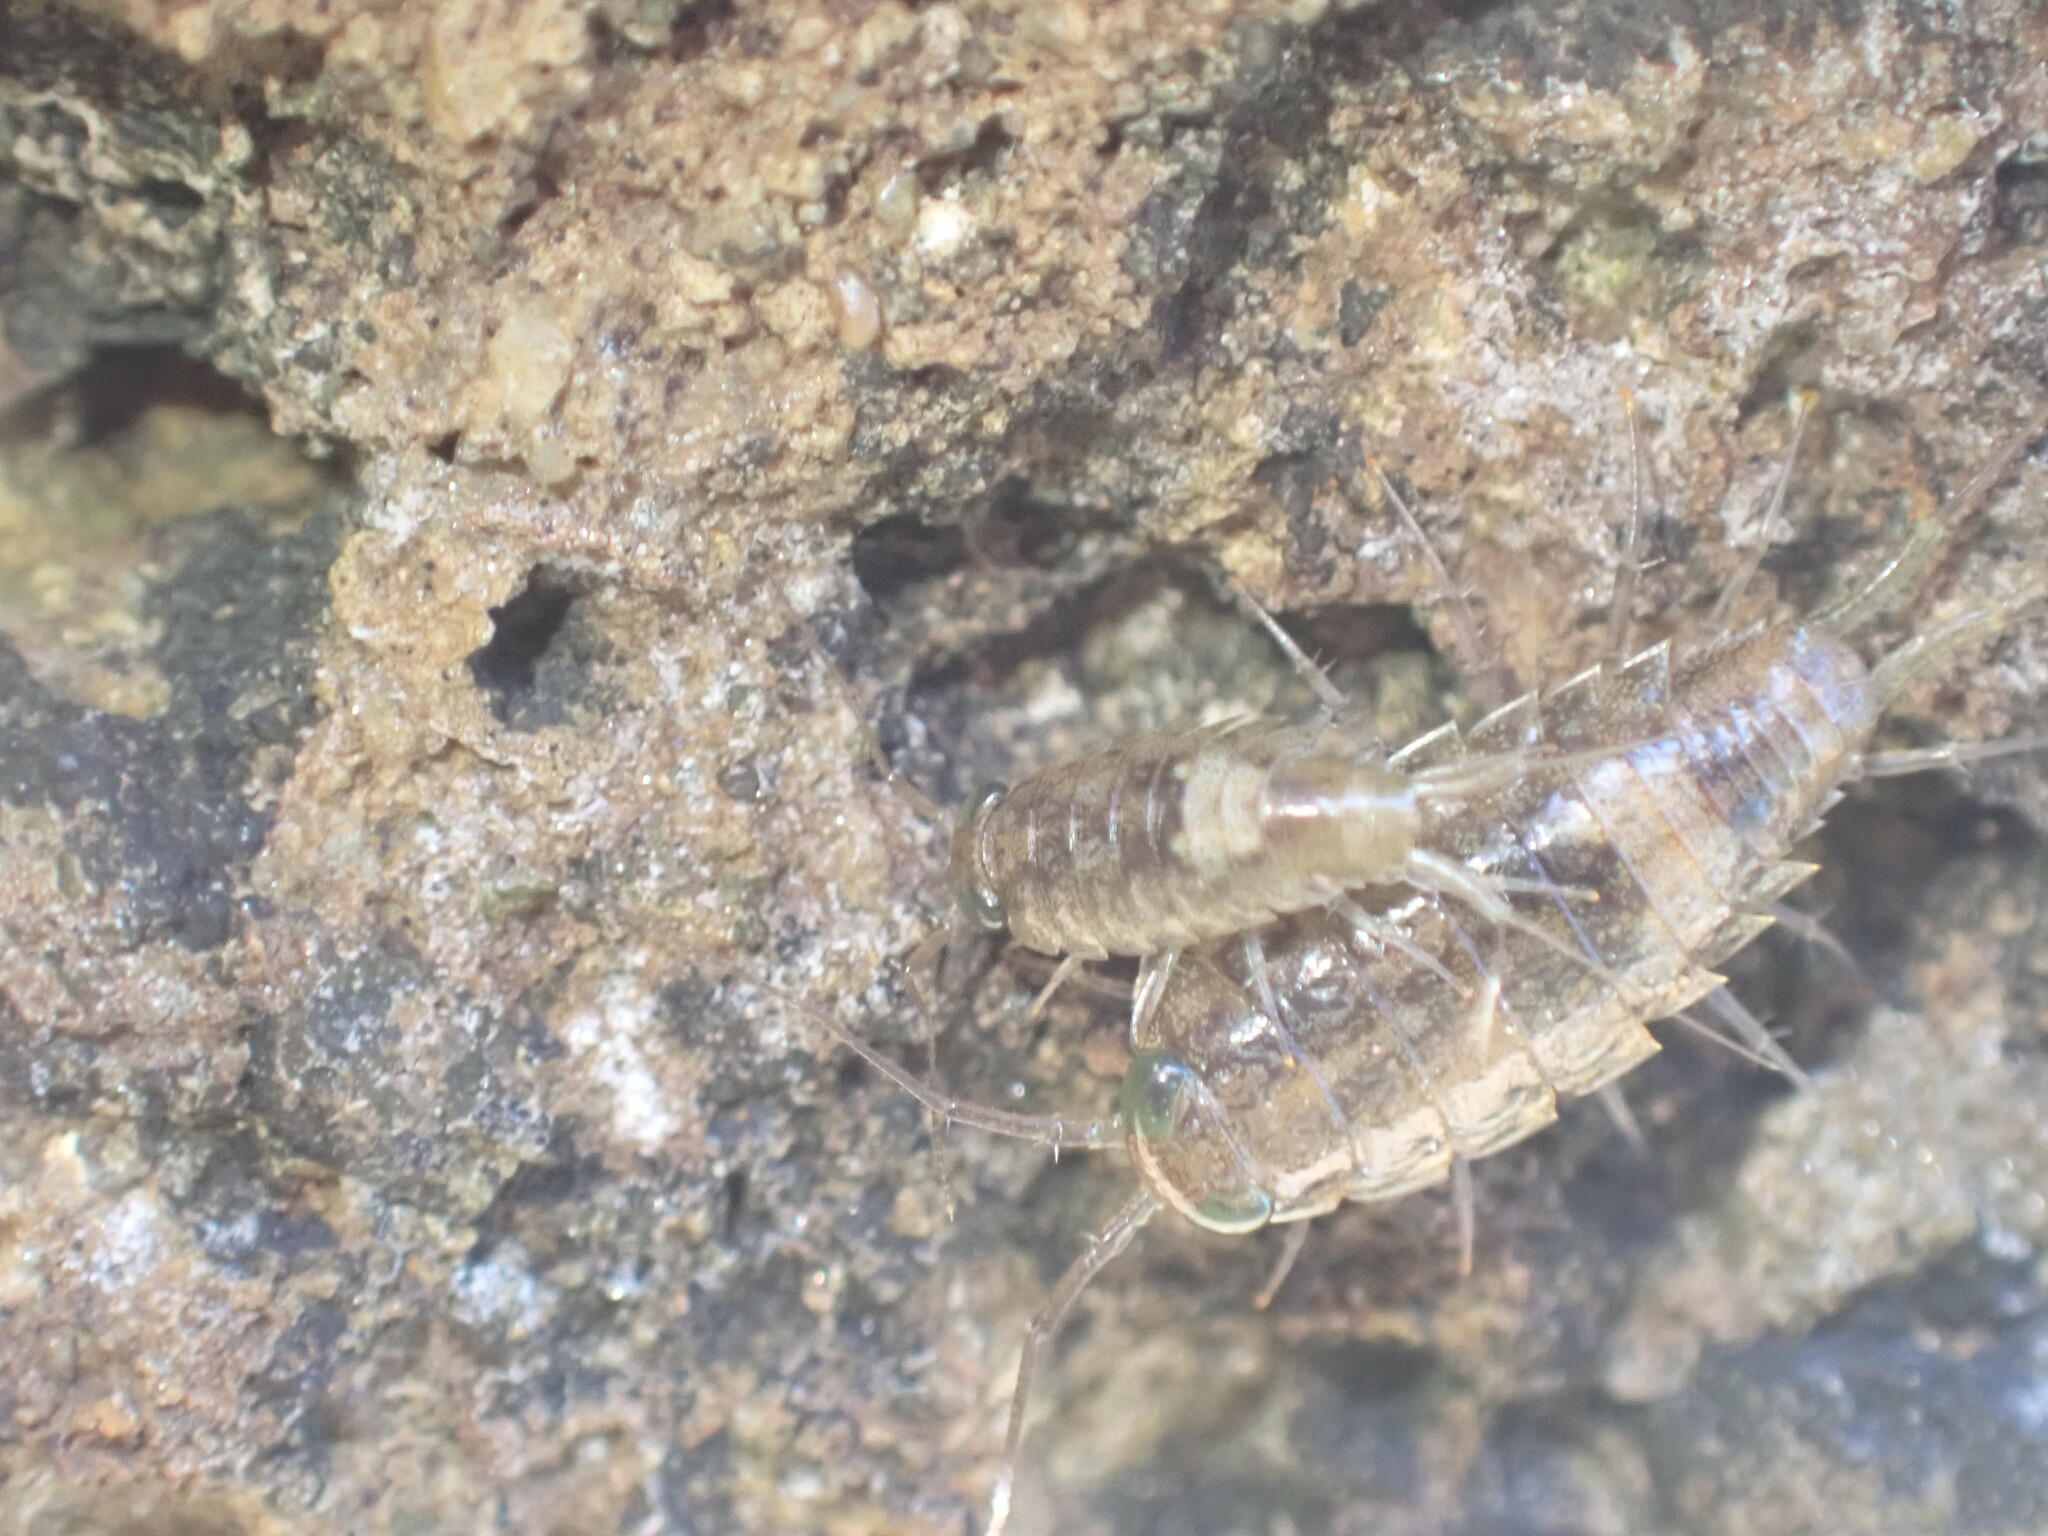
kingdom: Animalia
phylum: Arthropoda
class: Malacostraca
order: Isopoda
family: Ligiidae
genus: Ligia
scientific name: Ligia italica
